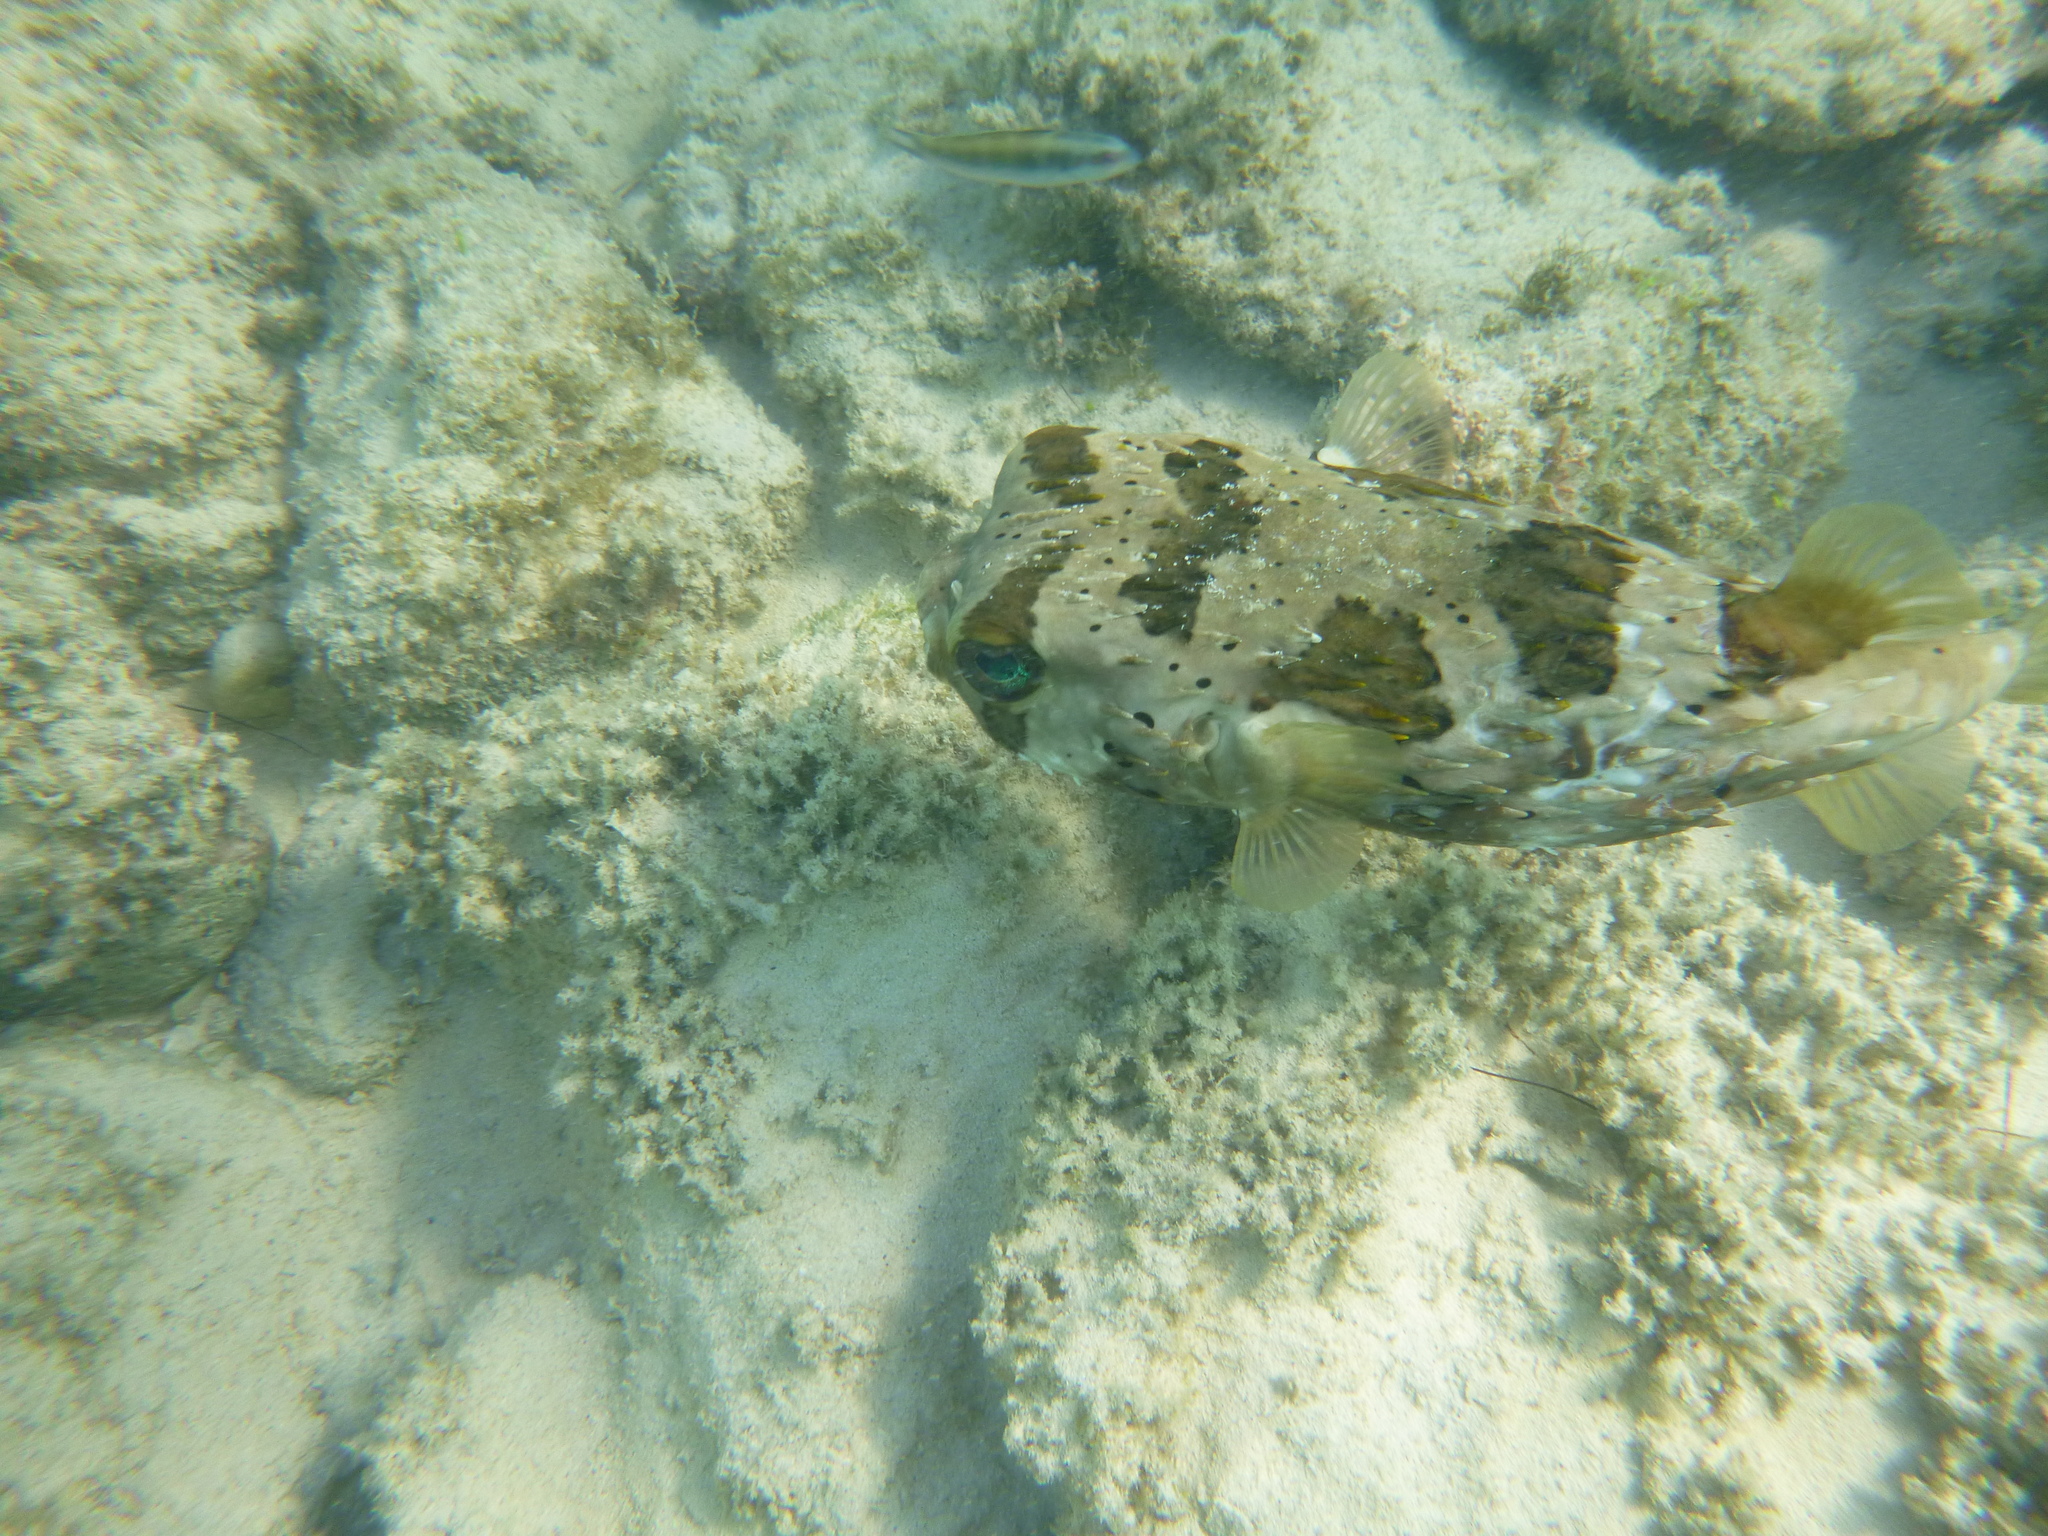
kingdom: Animalia
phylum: Chordata
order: Tetraodontiformes
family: Diodontidae
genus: Diodon
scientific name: Diodon holocanthus
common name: Balloonfish
